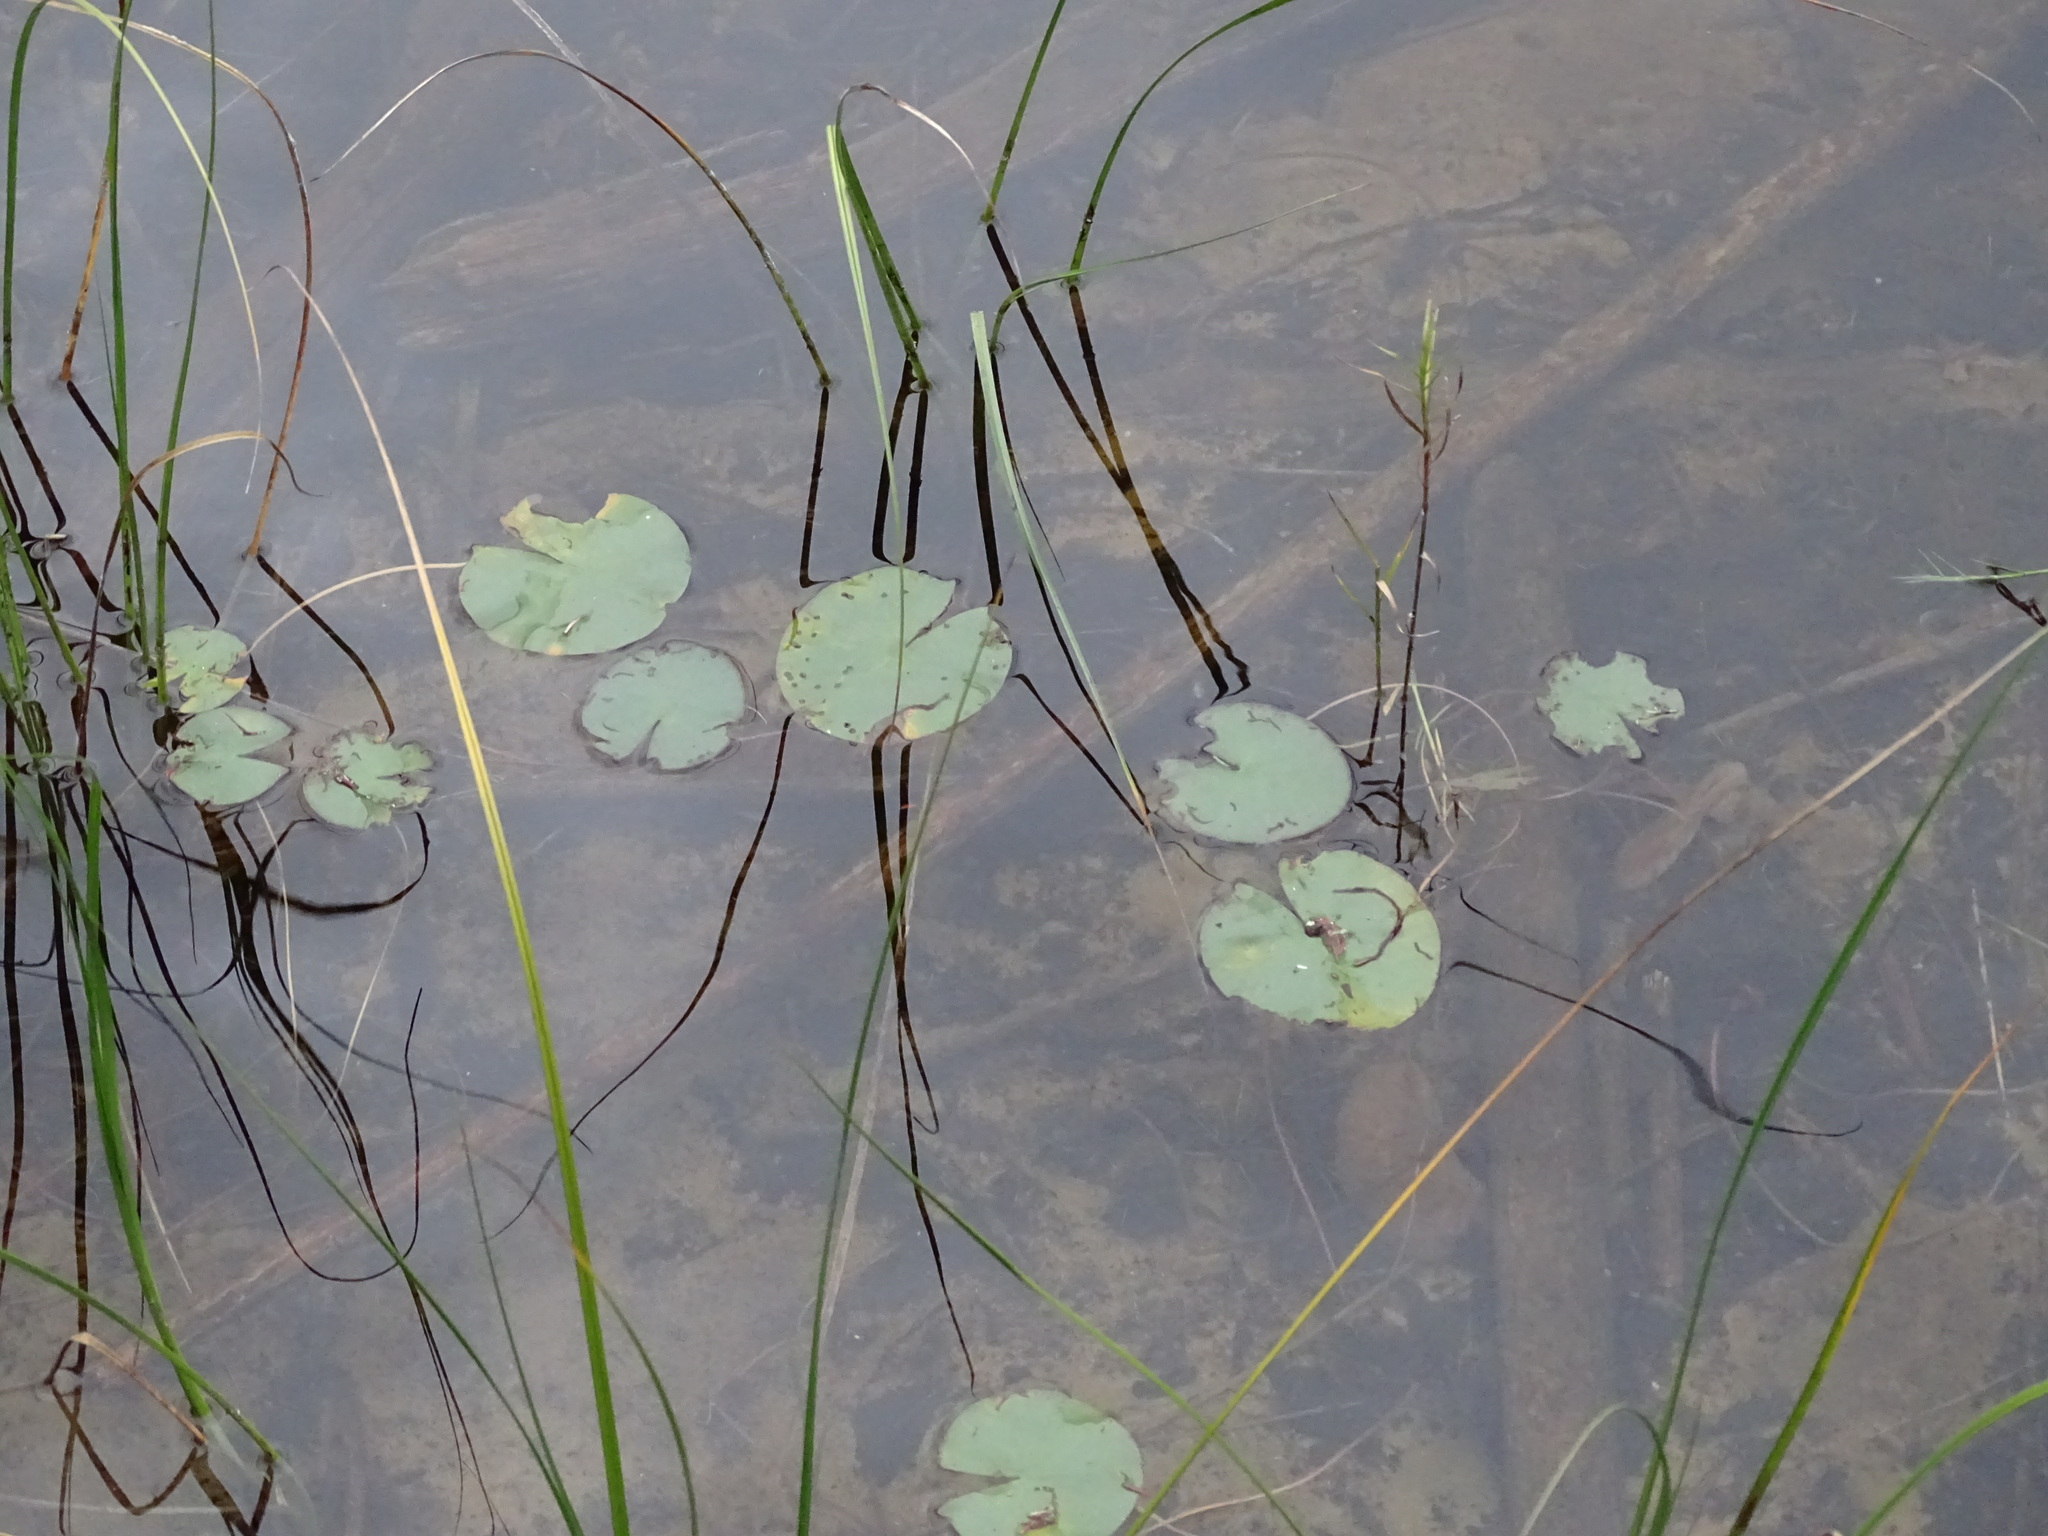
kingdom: Plantae
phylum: Tracheophyta
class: Magnoliopsida
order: Nymphaeales
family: Nymphaeaceae
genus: Nymphaea
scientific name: Nymphaea odorata
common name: Fragrant water-lily
